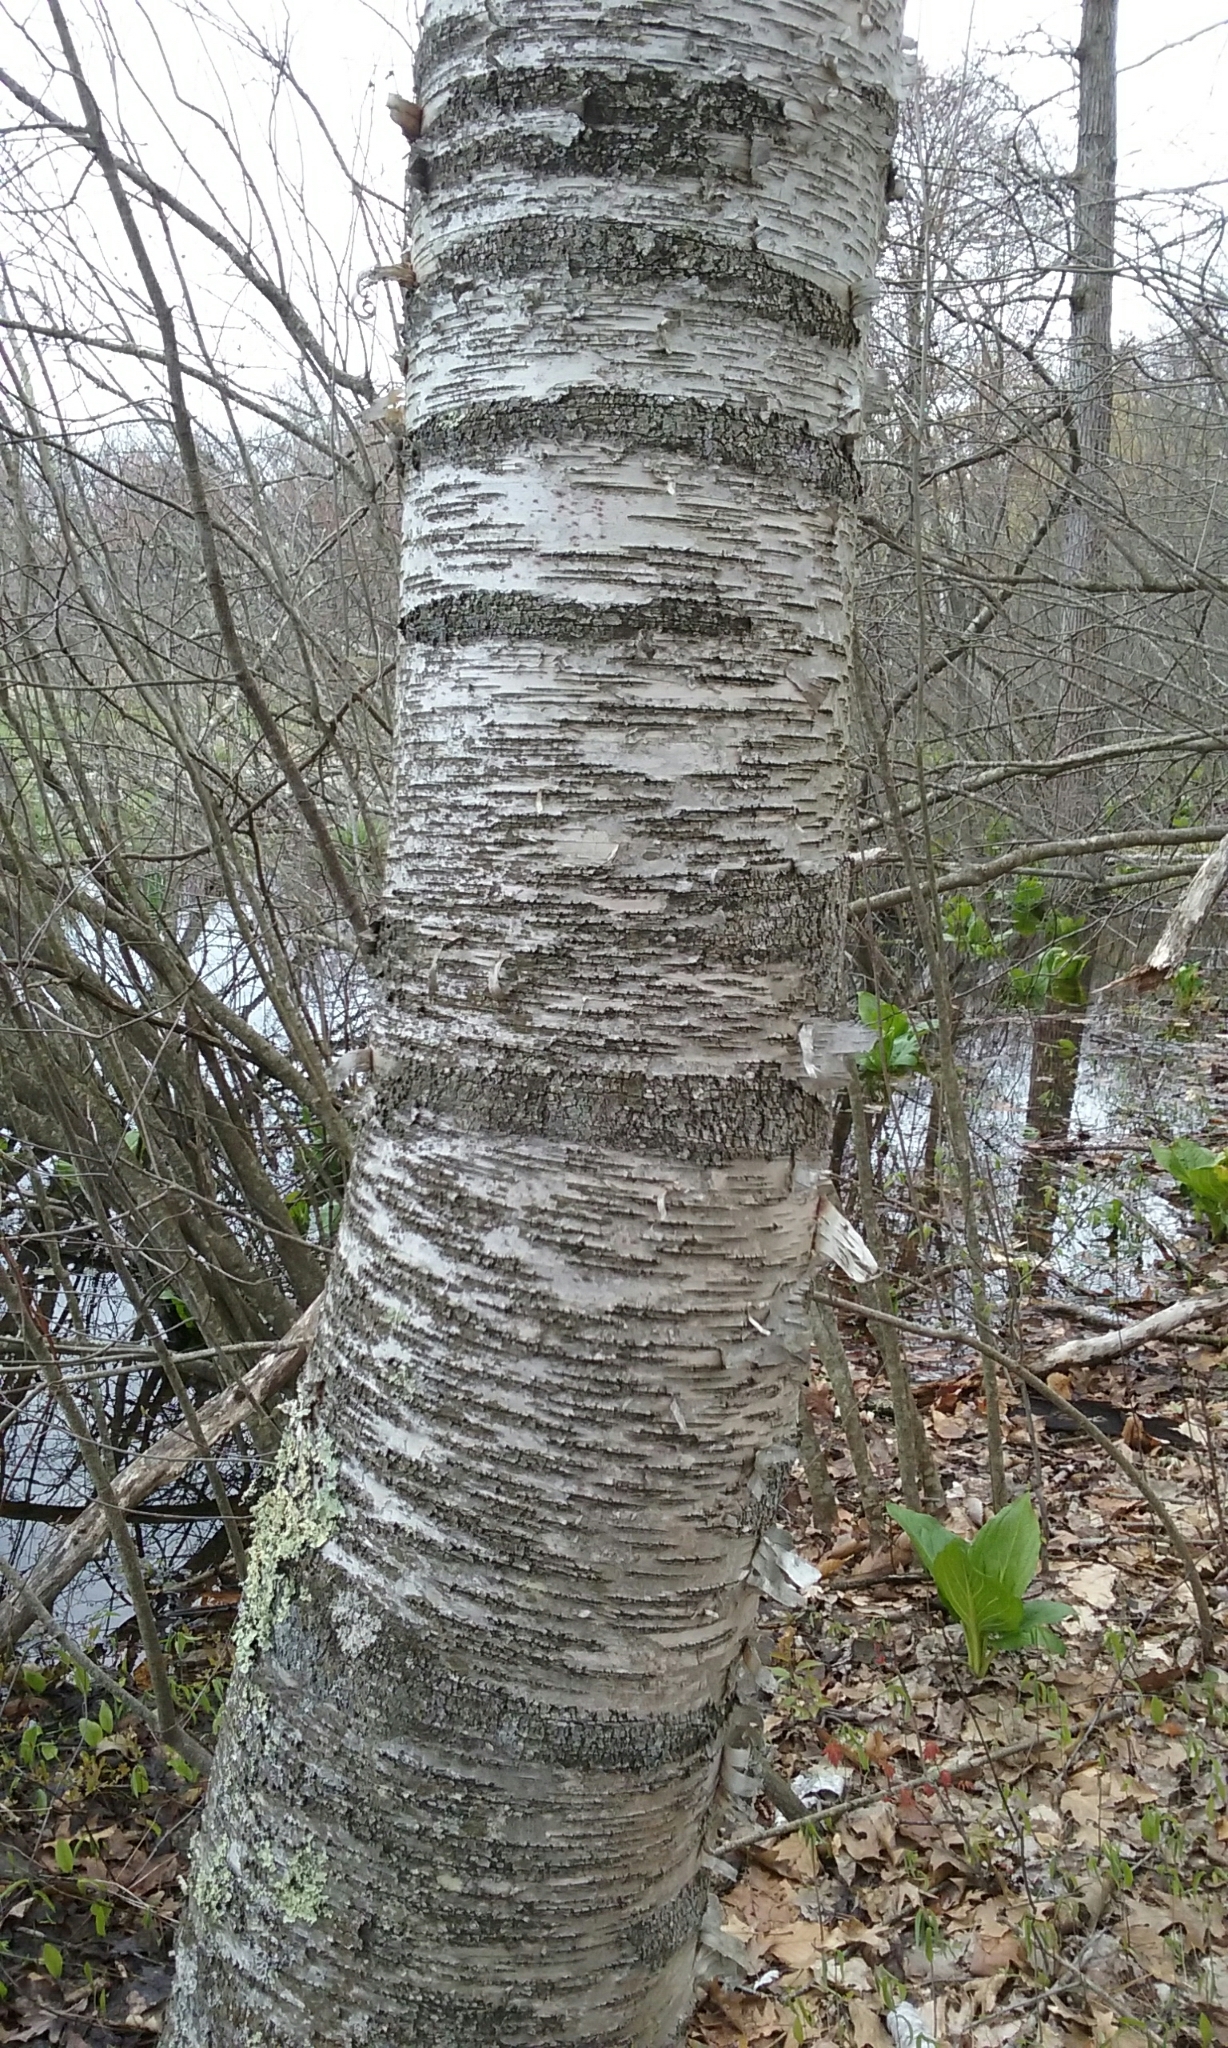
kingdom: Plantae
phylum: Tracheophyta
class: Magnoliopsida
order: Fagales
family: Betulaceae
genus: Betula
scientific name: Betula papyrifera
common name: Paper birch
